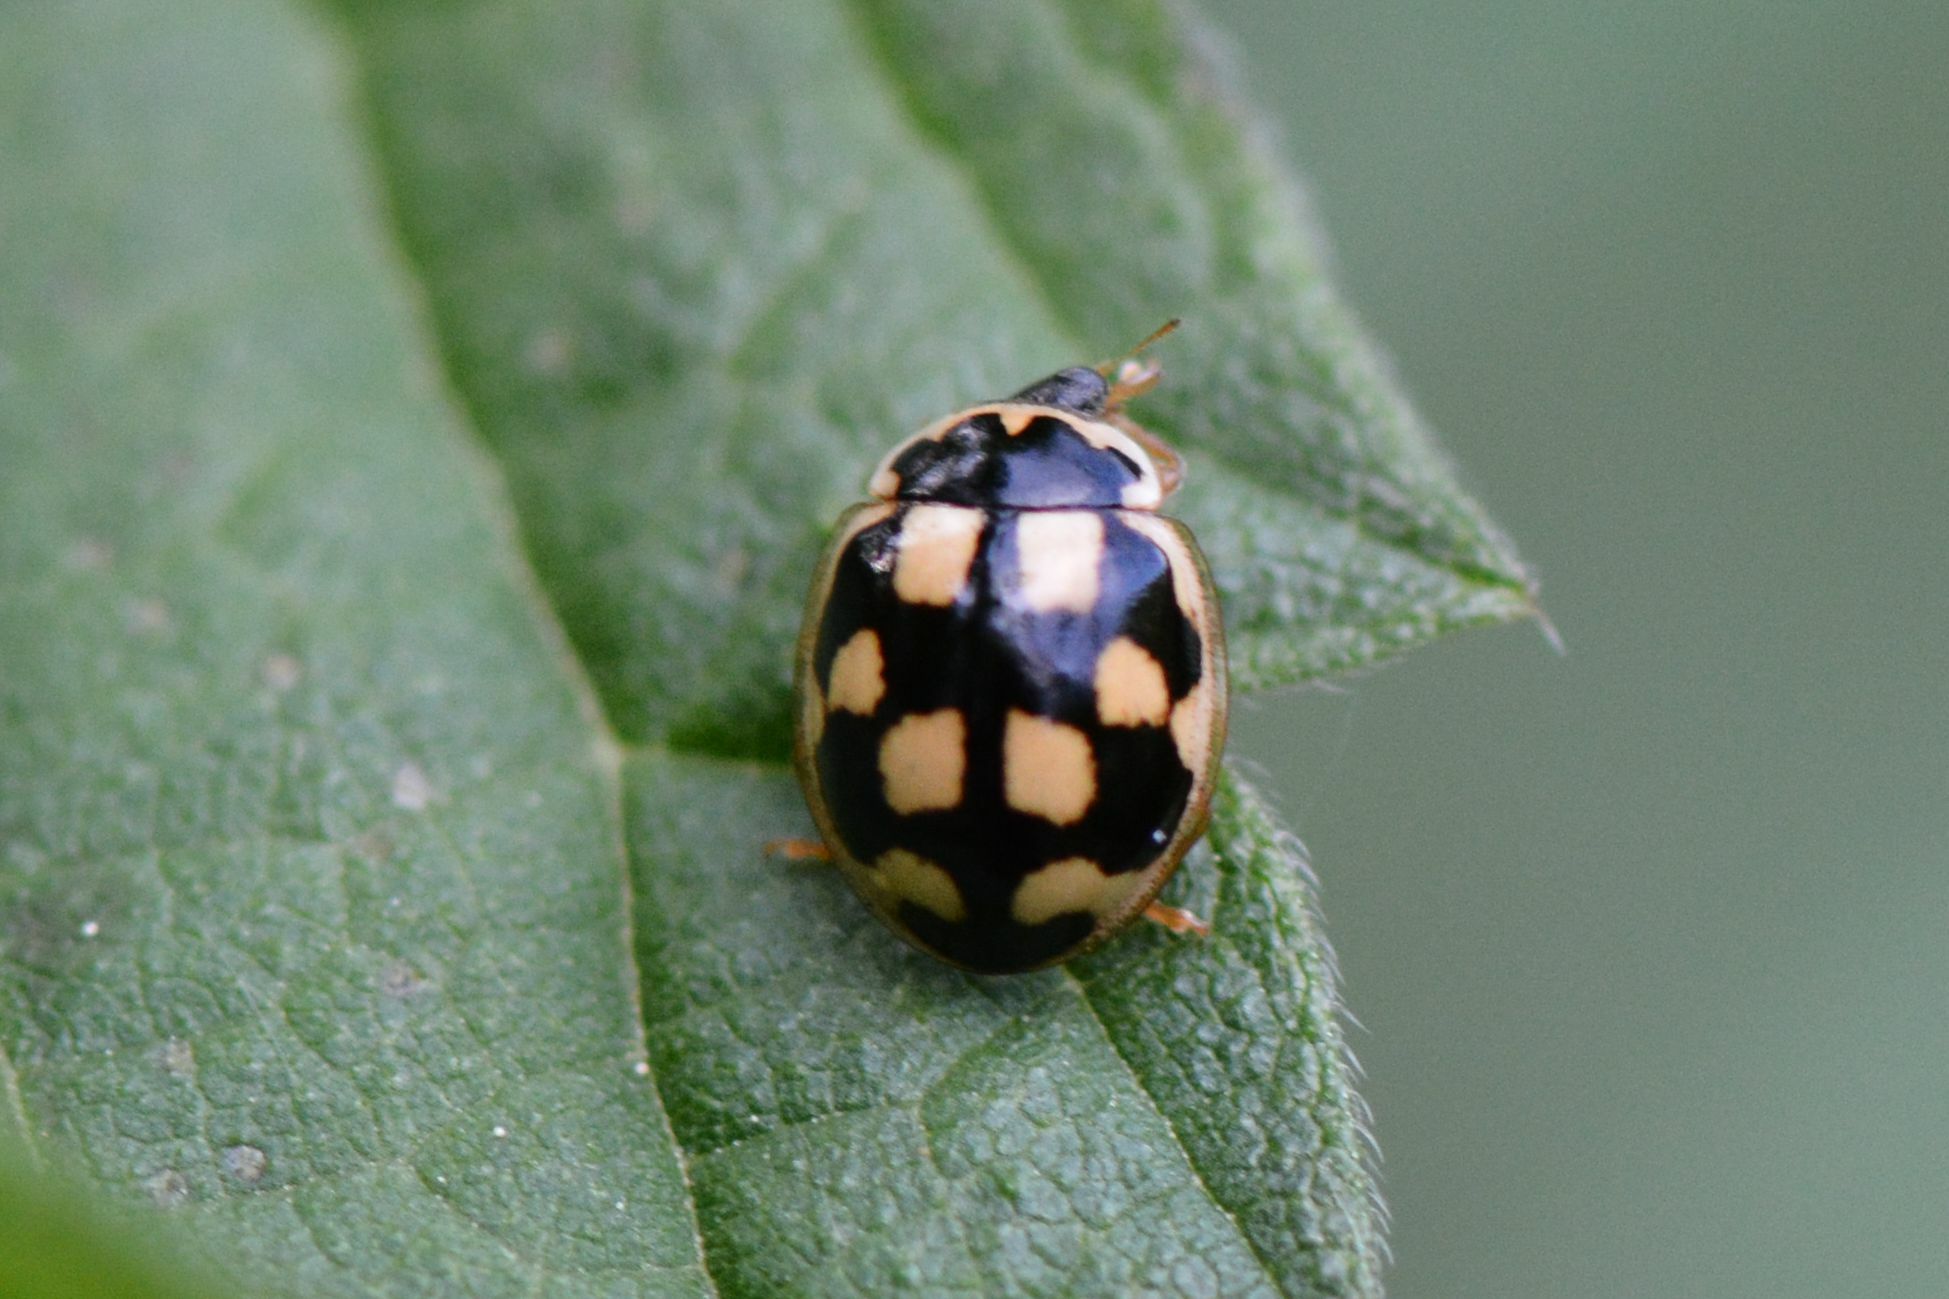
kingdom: Animalia
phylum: Arthropoda
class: Insecta
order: Coleoptera
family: Coccinellidae
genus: Propylaea
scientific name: Propylaea quatuordecimpunctata
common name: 14-spotted ladybird beetle
